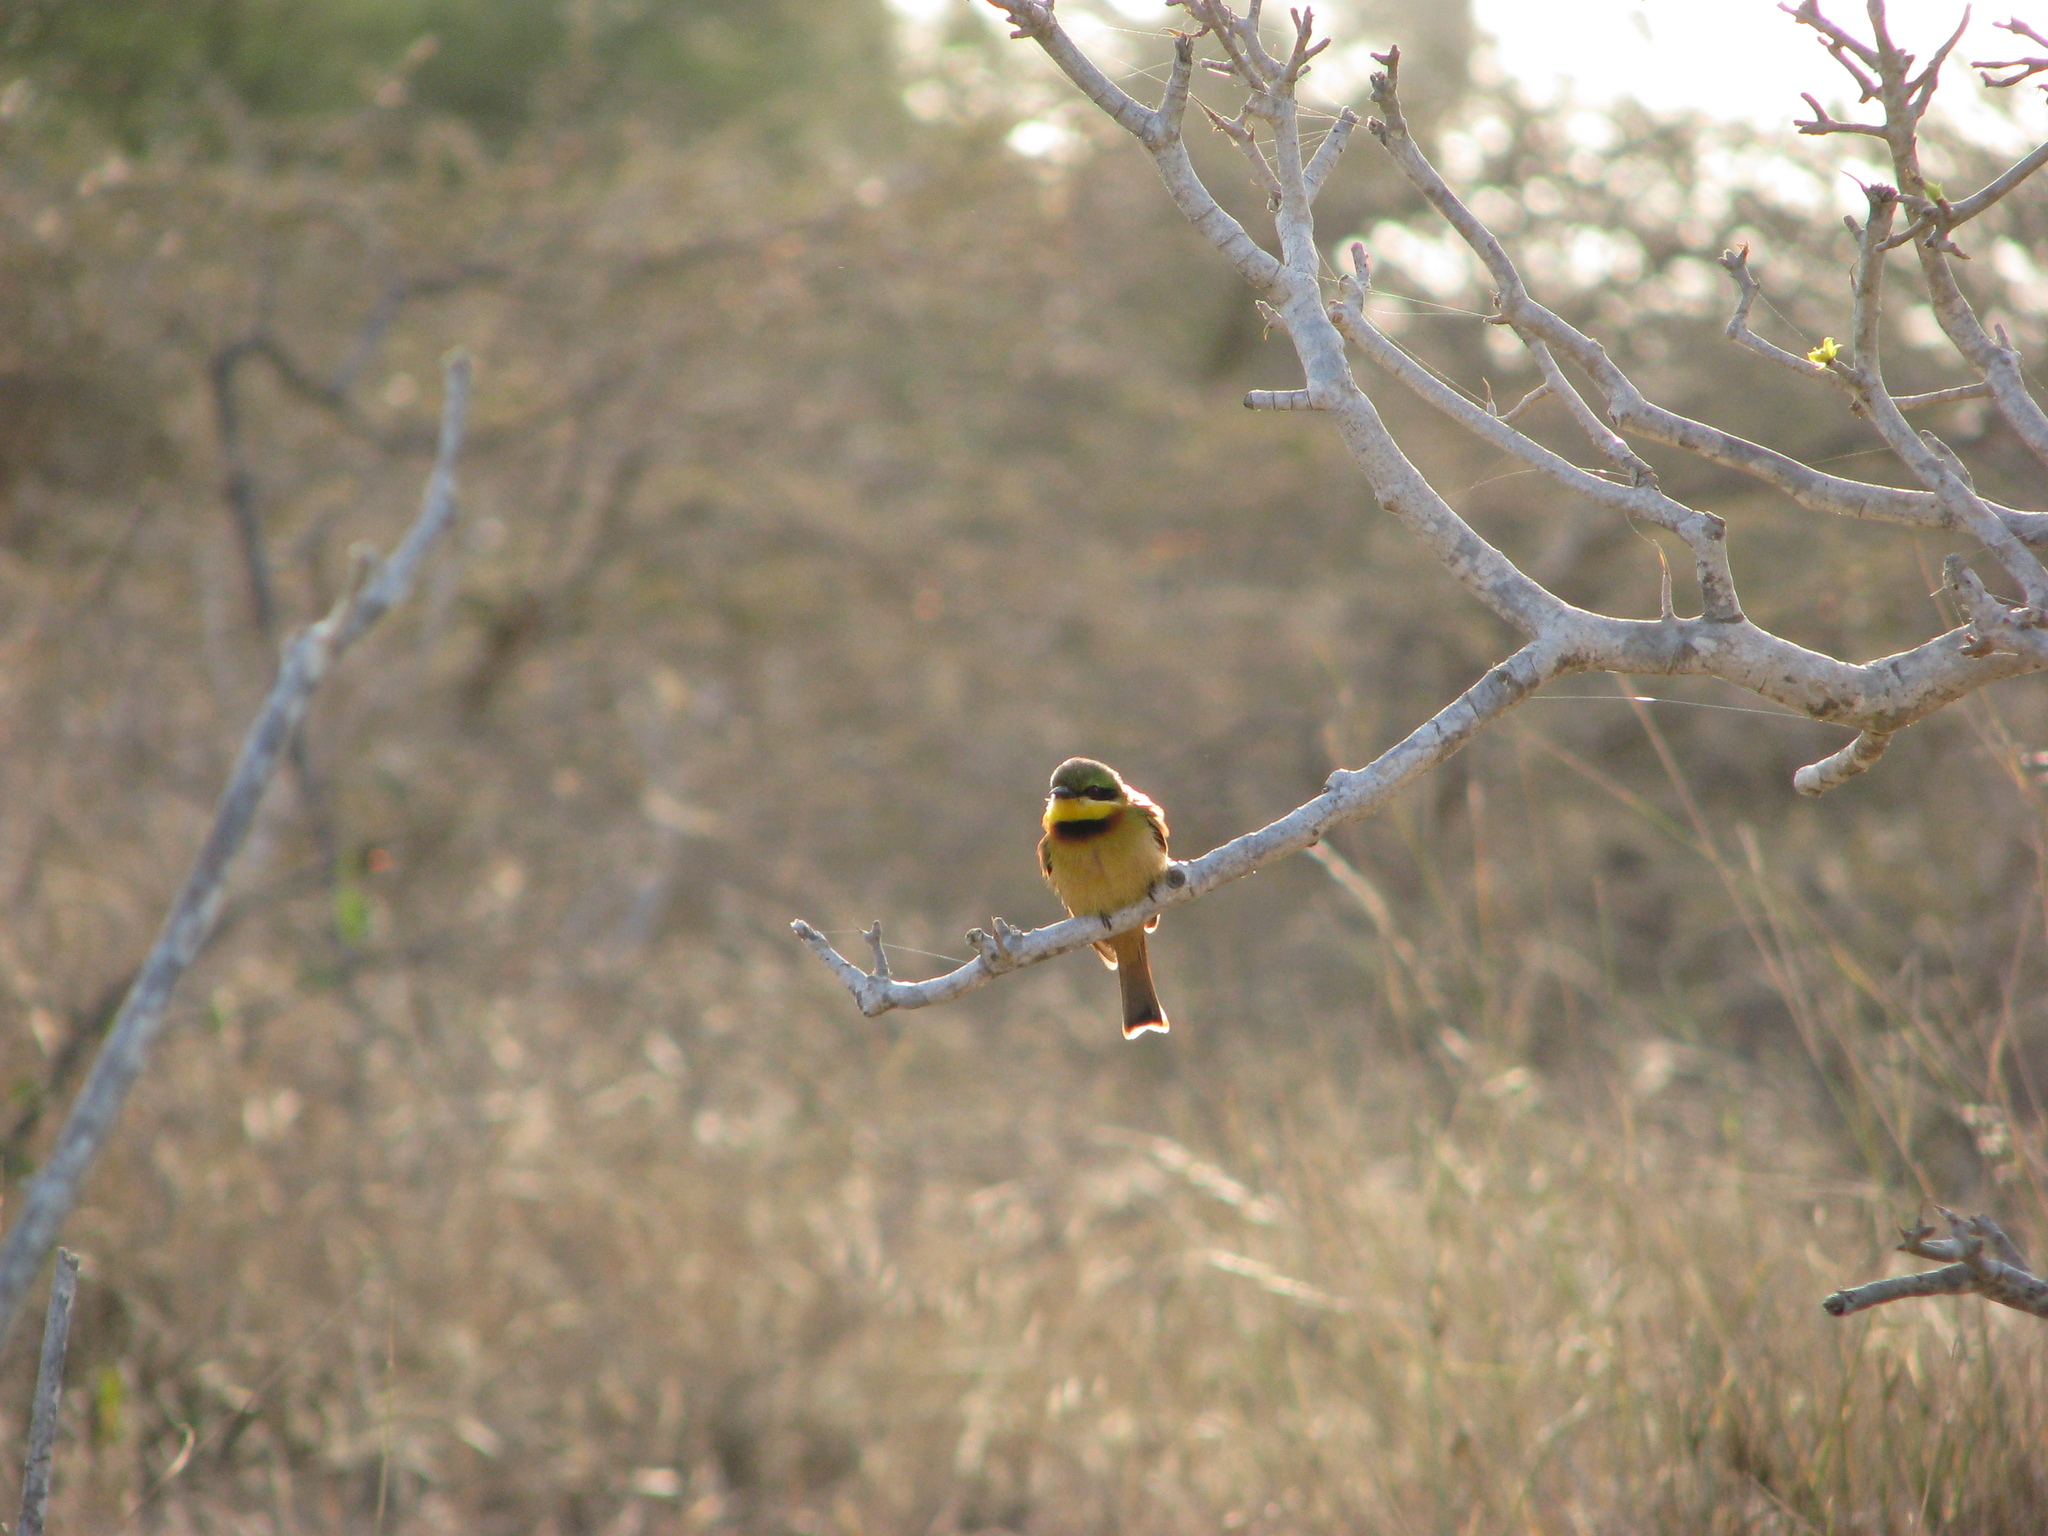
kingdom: Animalia
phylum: Chordata
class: Aves
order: Coraciiformes
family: Meropidae
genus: Merops
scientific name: Merops pusillus
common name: Little bee-eater
